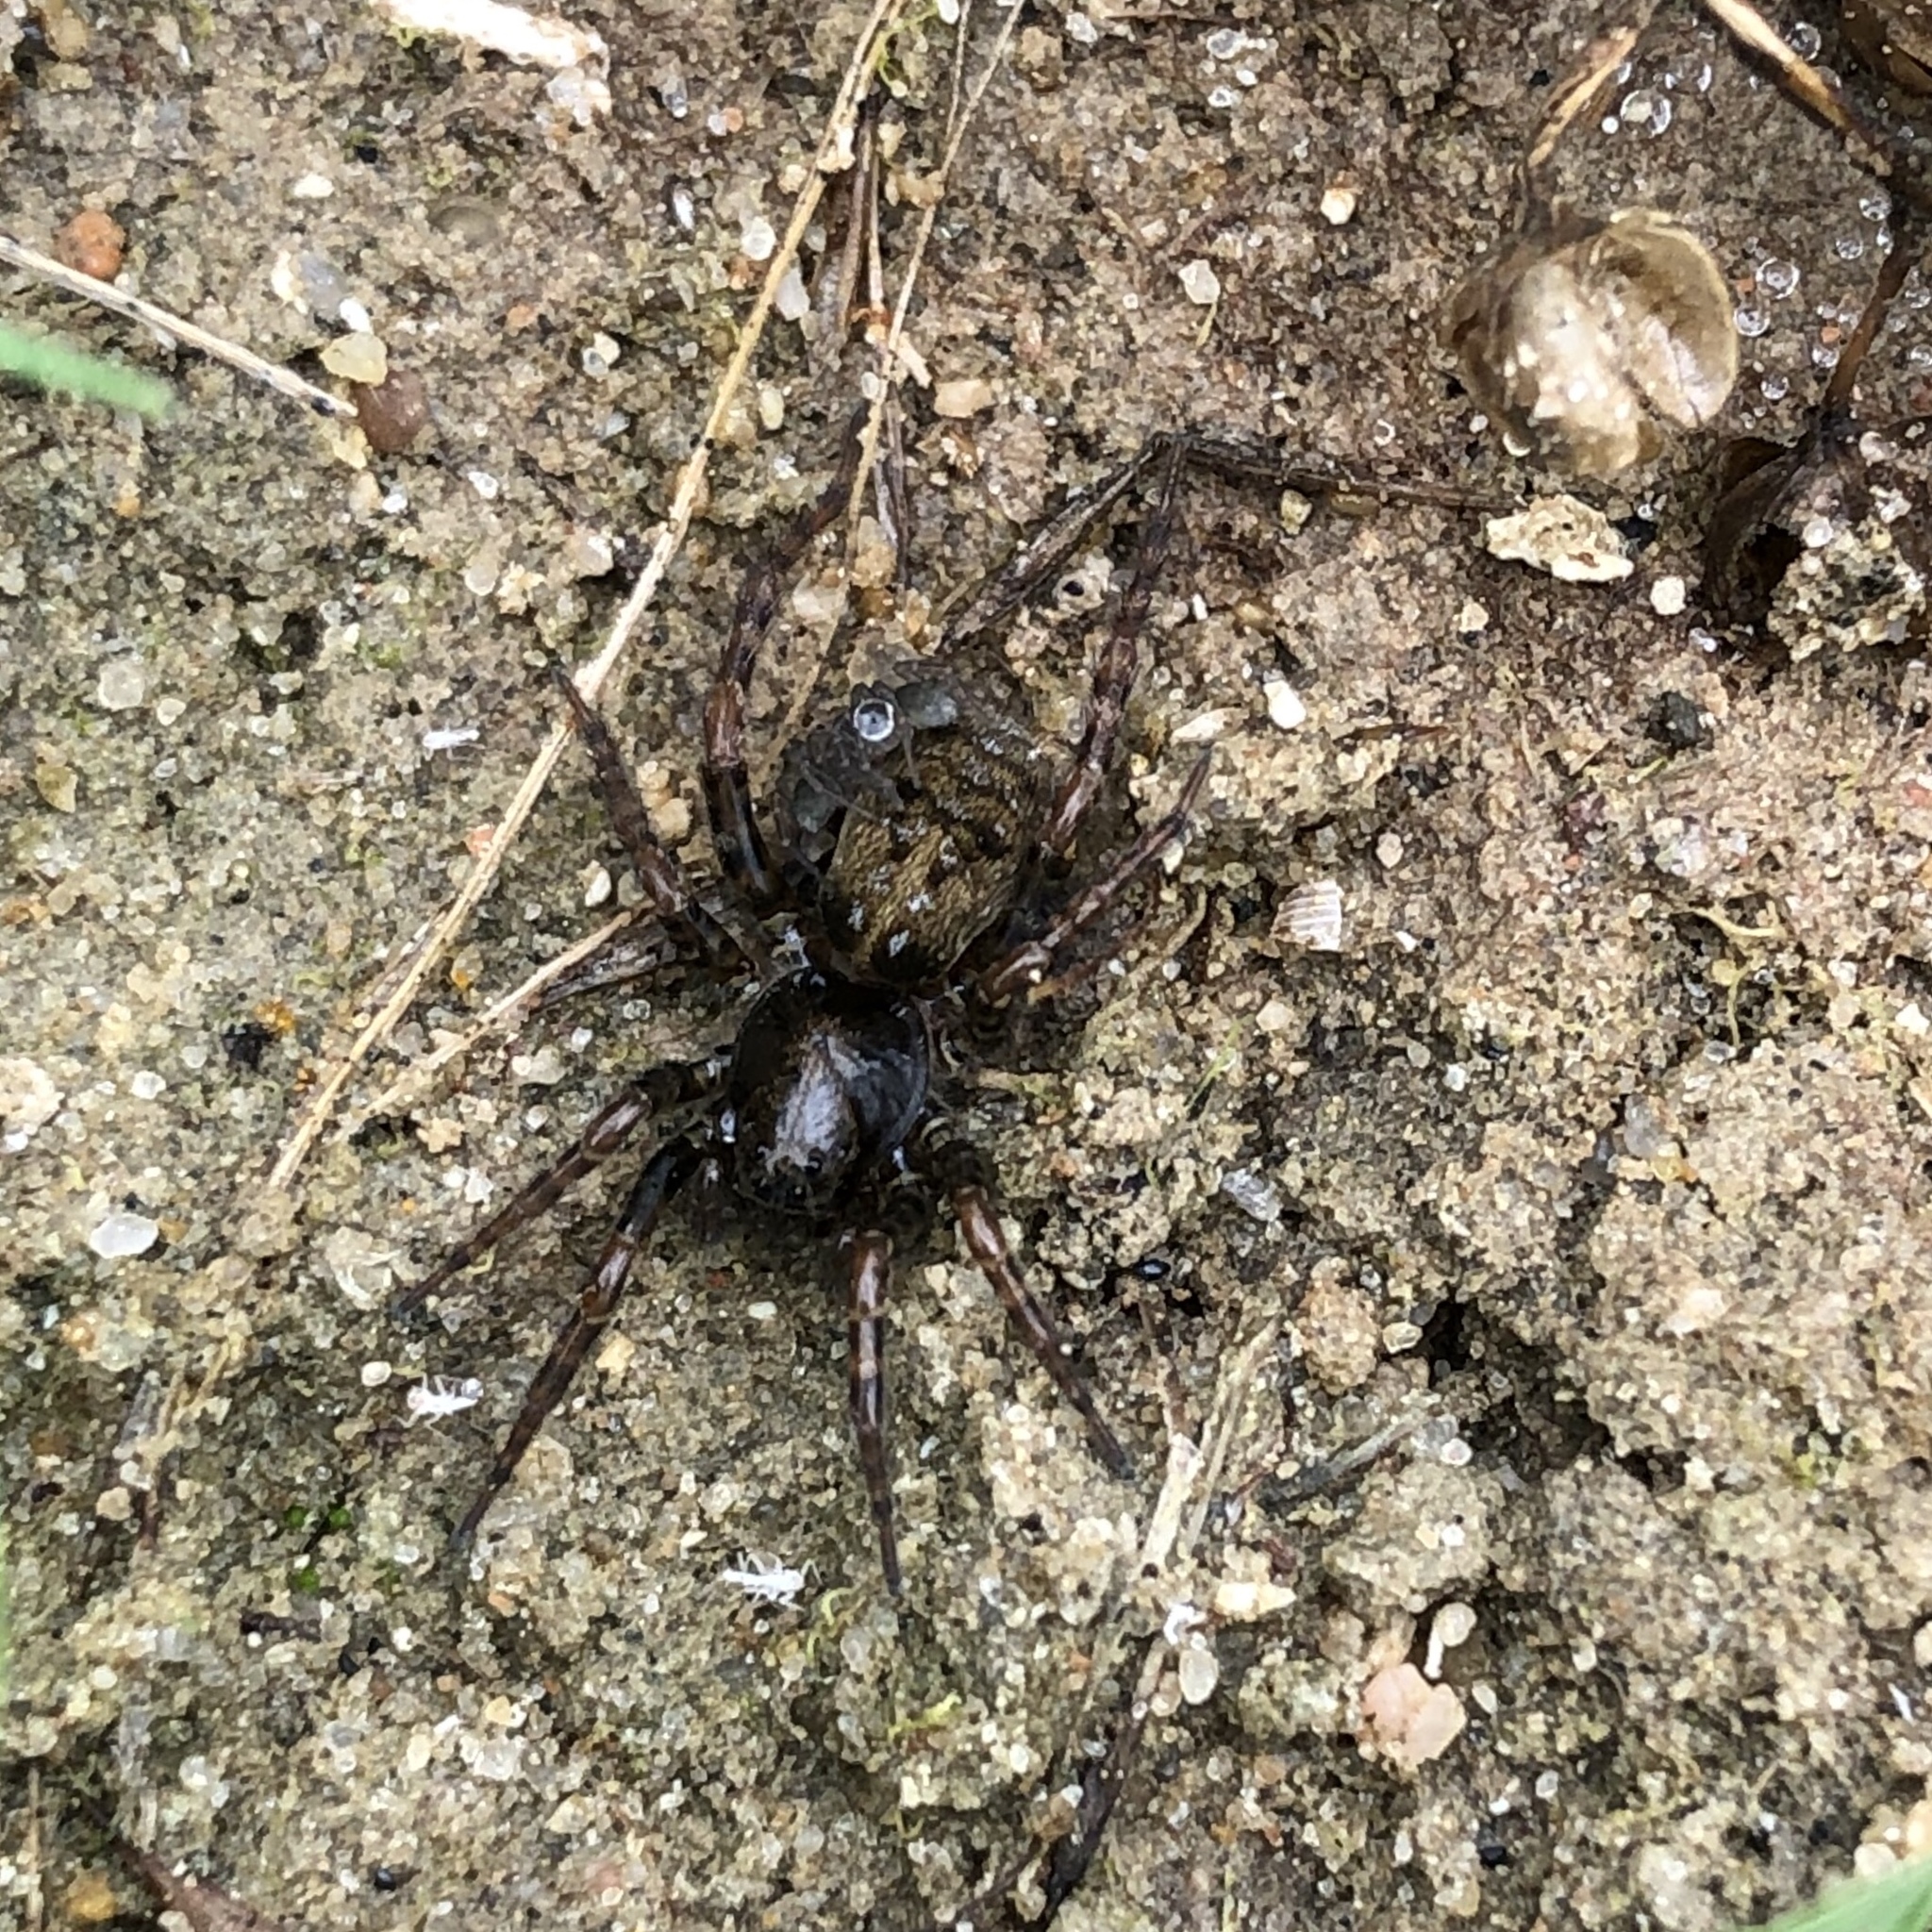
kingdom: Animalia
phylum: Arthropoda
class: Arachnida
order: Araneae
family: Lycosidae
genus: Arctosa
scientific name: Arctosa leopardus
